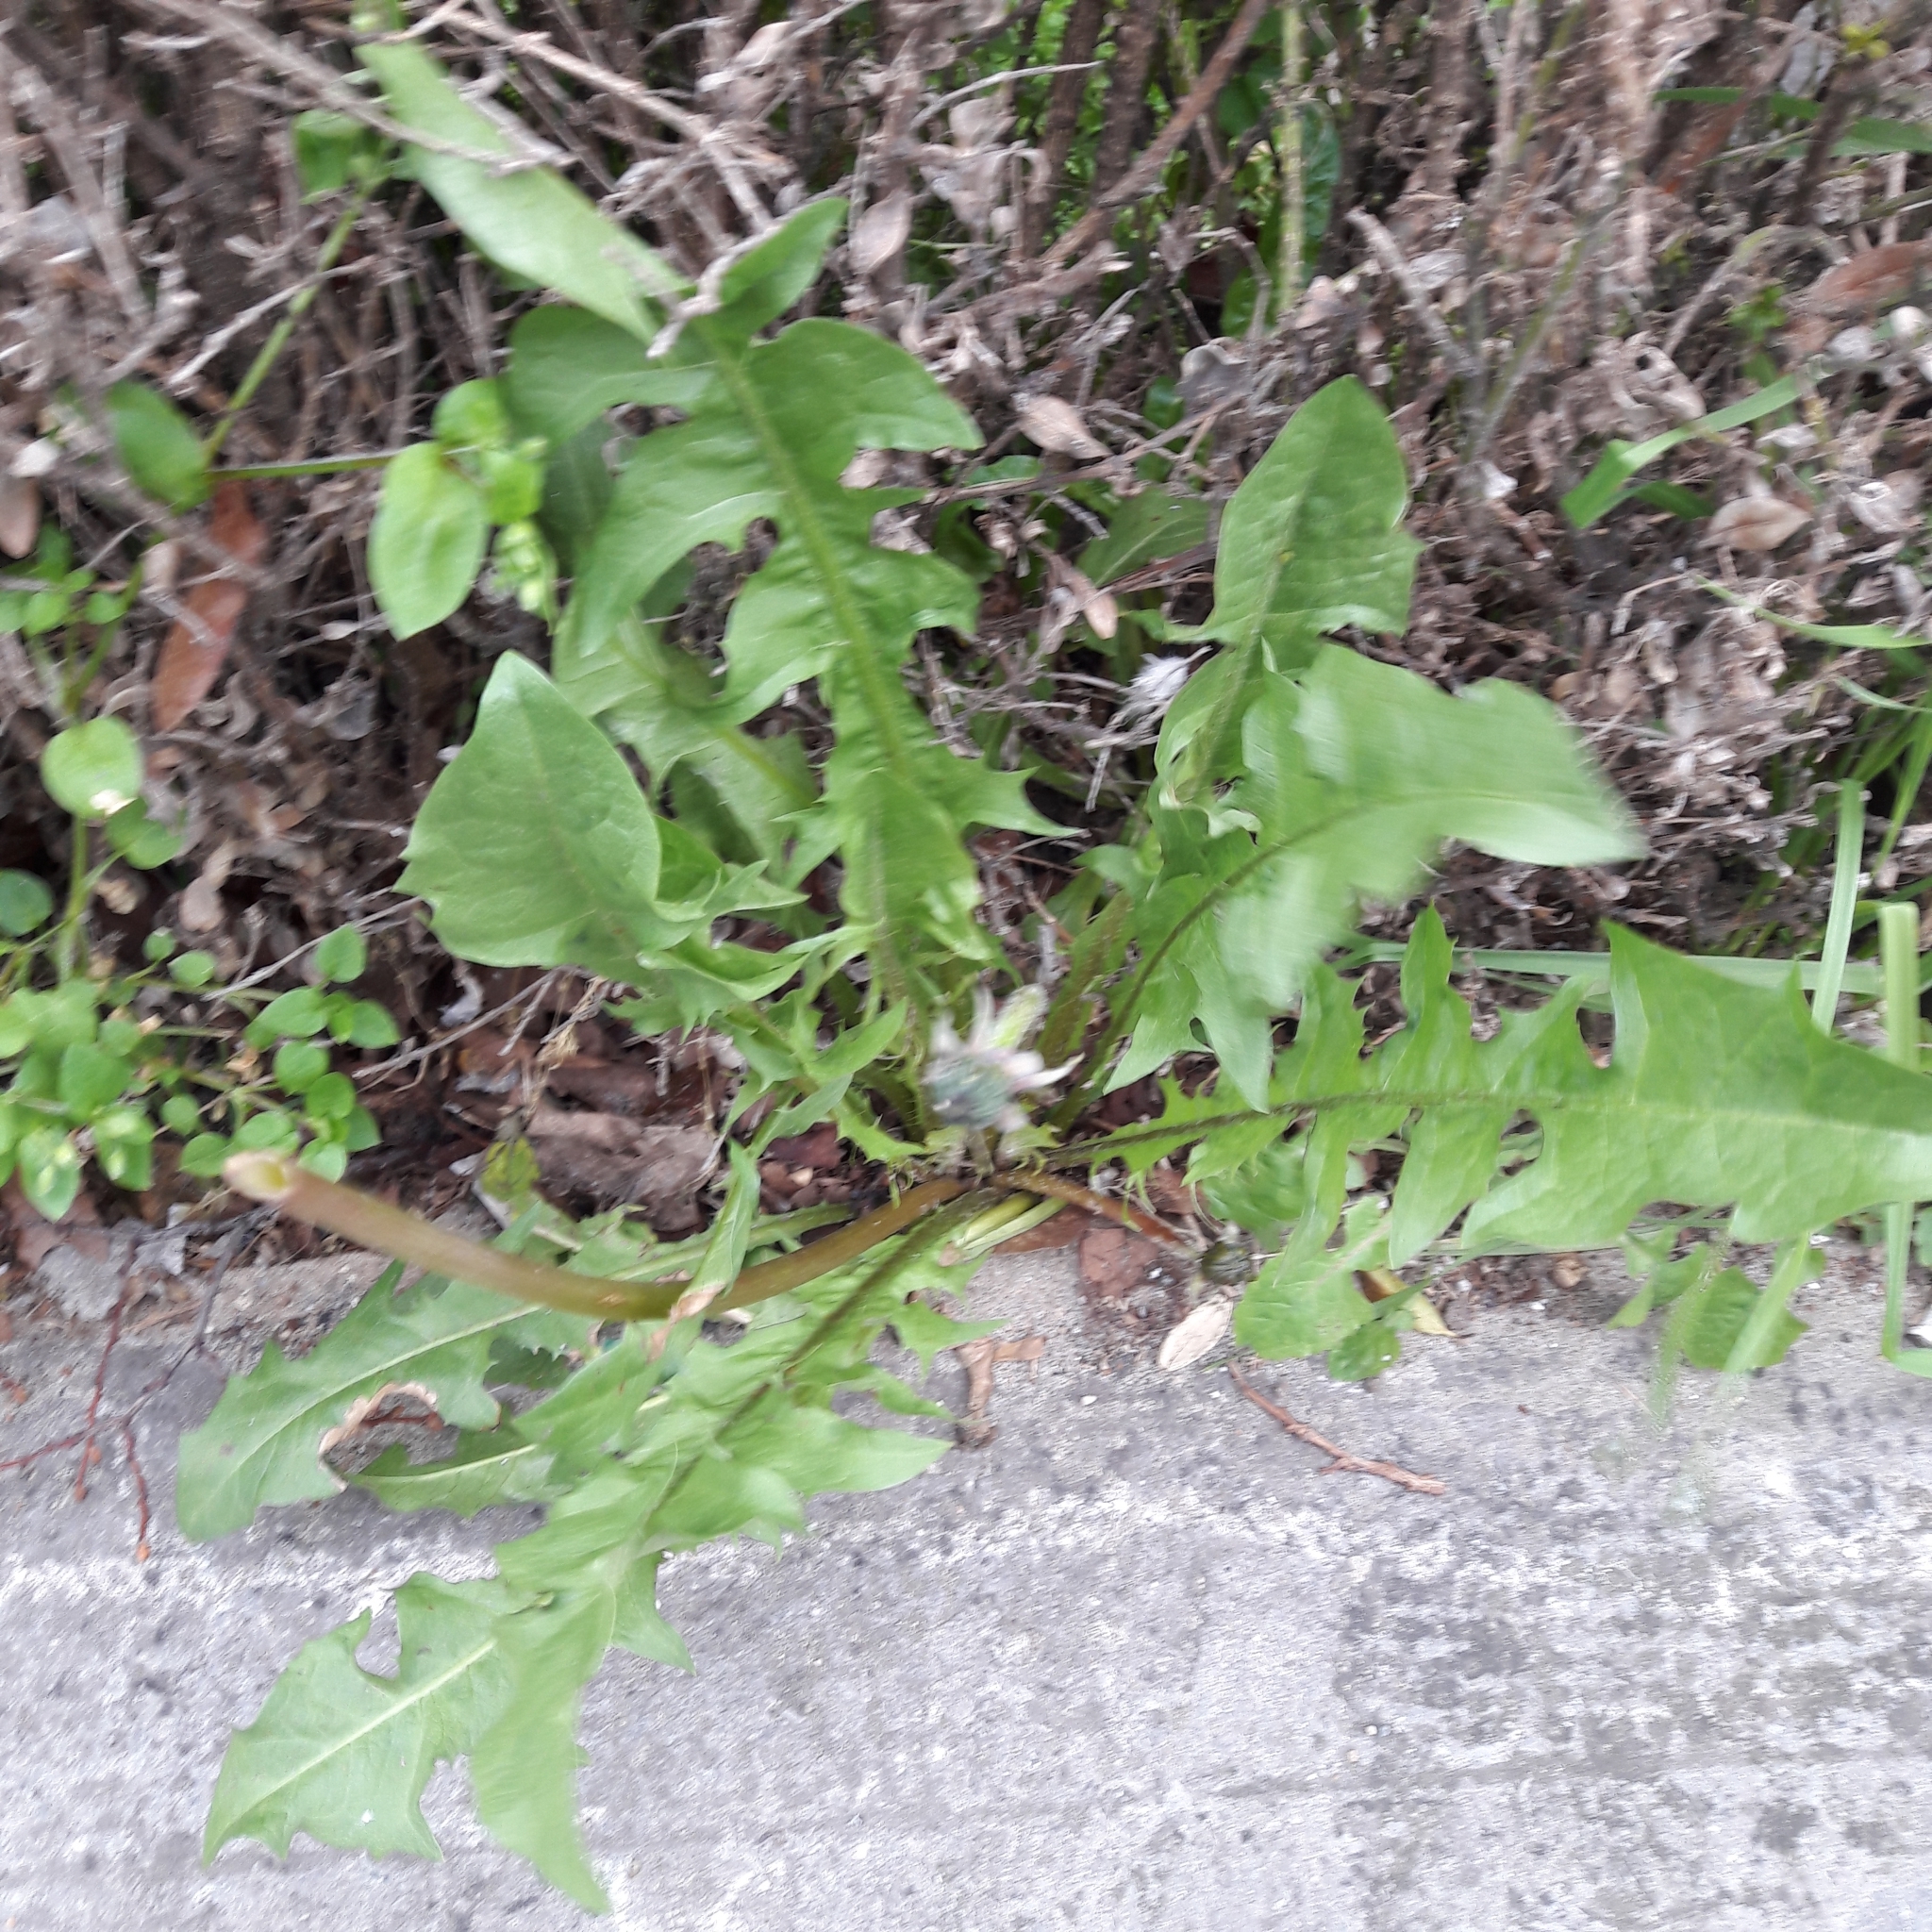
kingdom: Plantae
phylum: Tracheophyta
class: Magnoliopsida
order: Asterales
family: Asteraceae
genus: Taraxacum
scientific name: Taraxacum officinale
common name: Common dandelion
